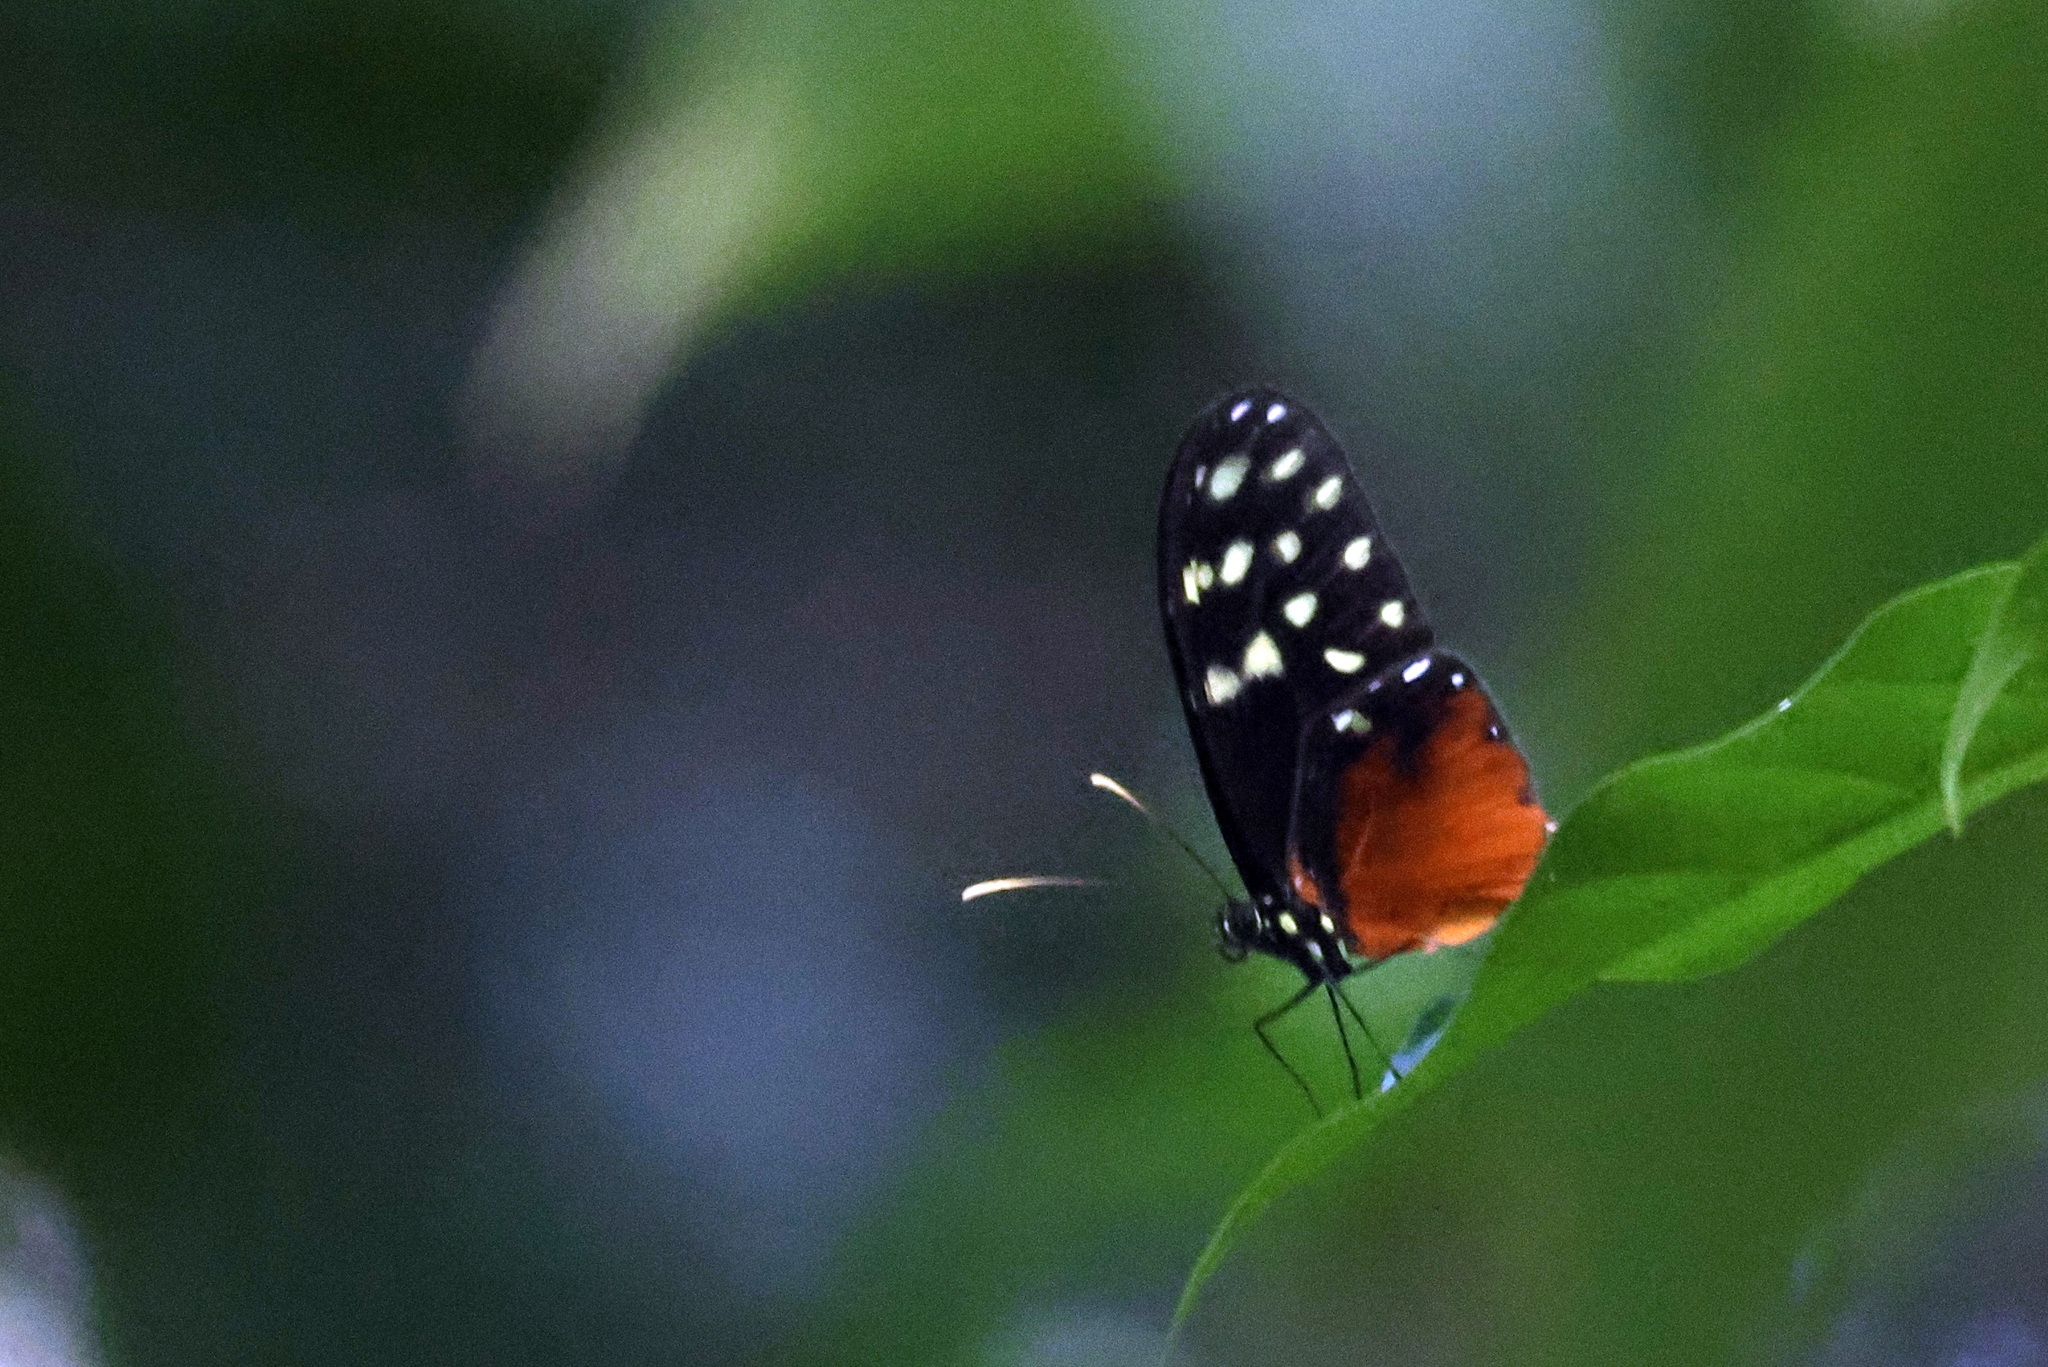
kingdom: Animalia
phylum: Arthropoda
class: Insecta
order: Lepidoptera
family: Nymphalidae
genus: Callithomia
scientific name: Callithomia hezia
